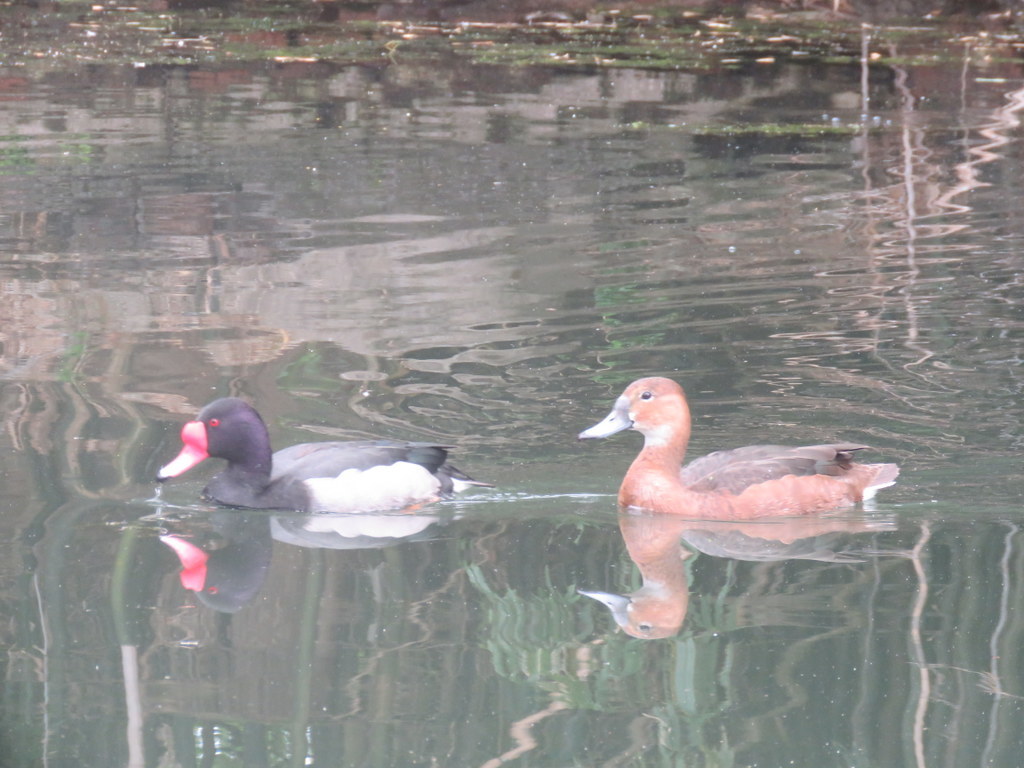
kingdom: Animalia
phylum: Chordata
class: Aves
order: Anseriformes
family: Anatidae
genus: Netta
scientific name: Netta peposaca
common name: Rosy-billed pochard
